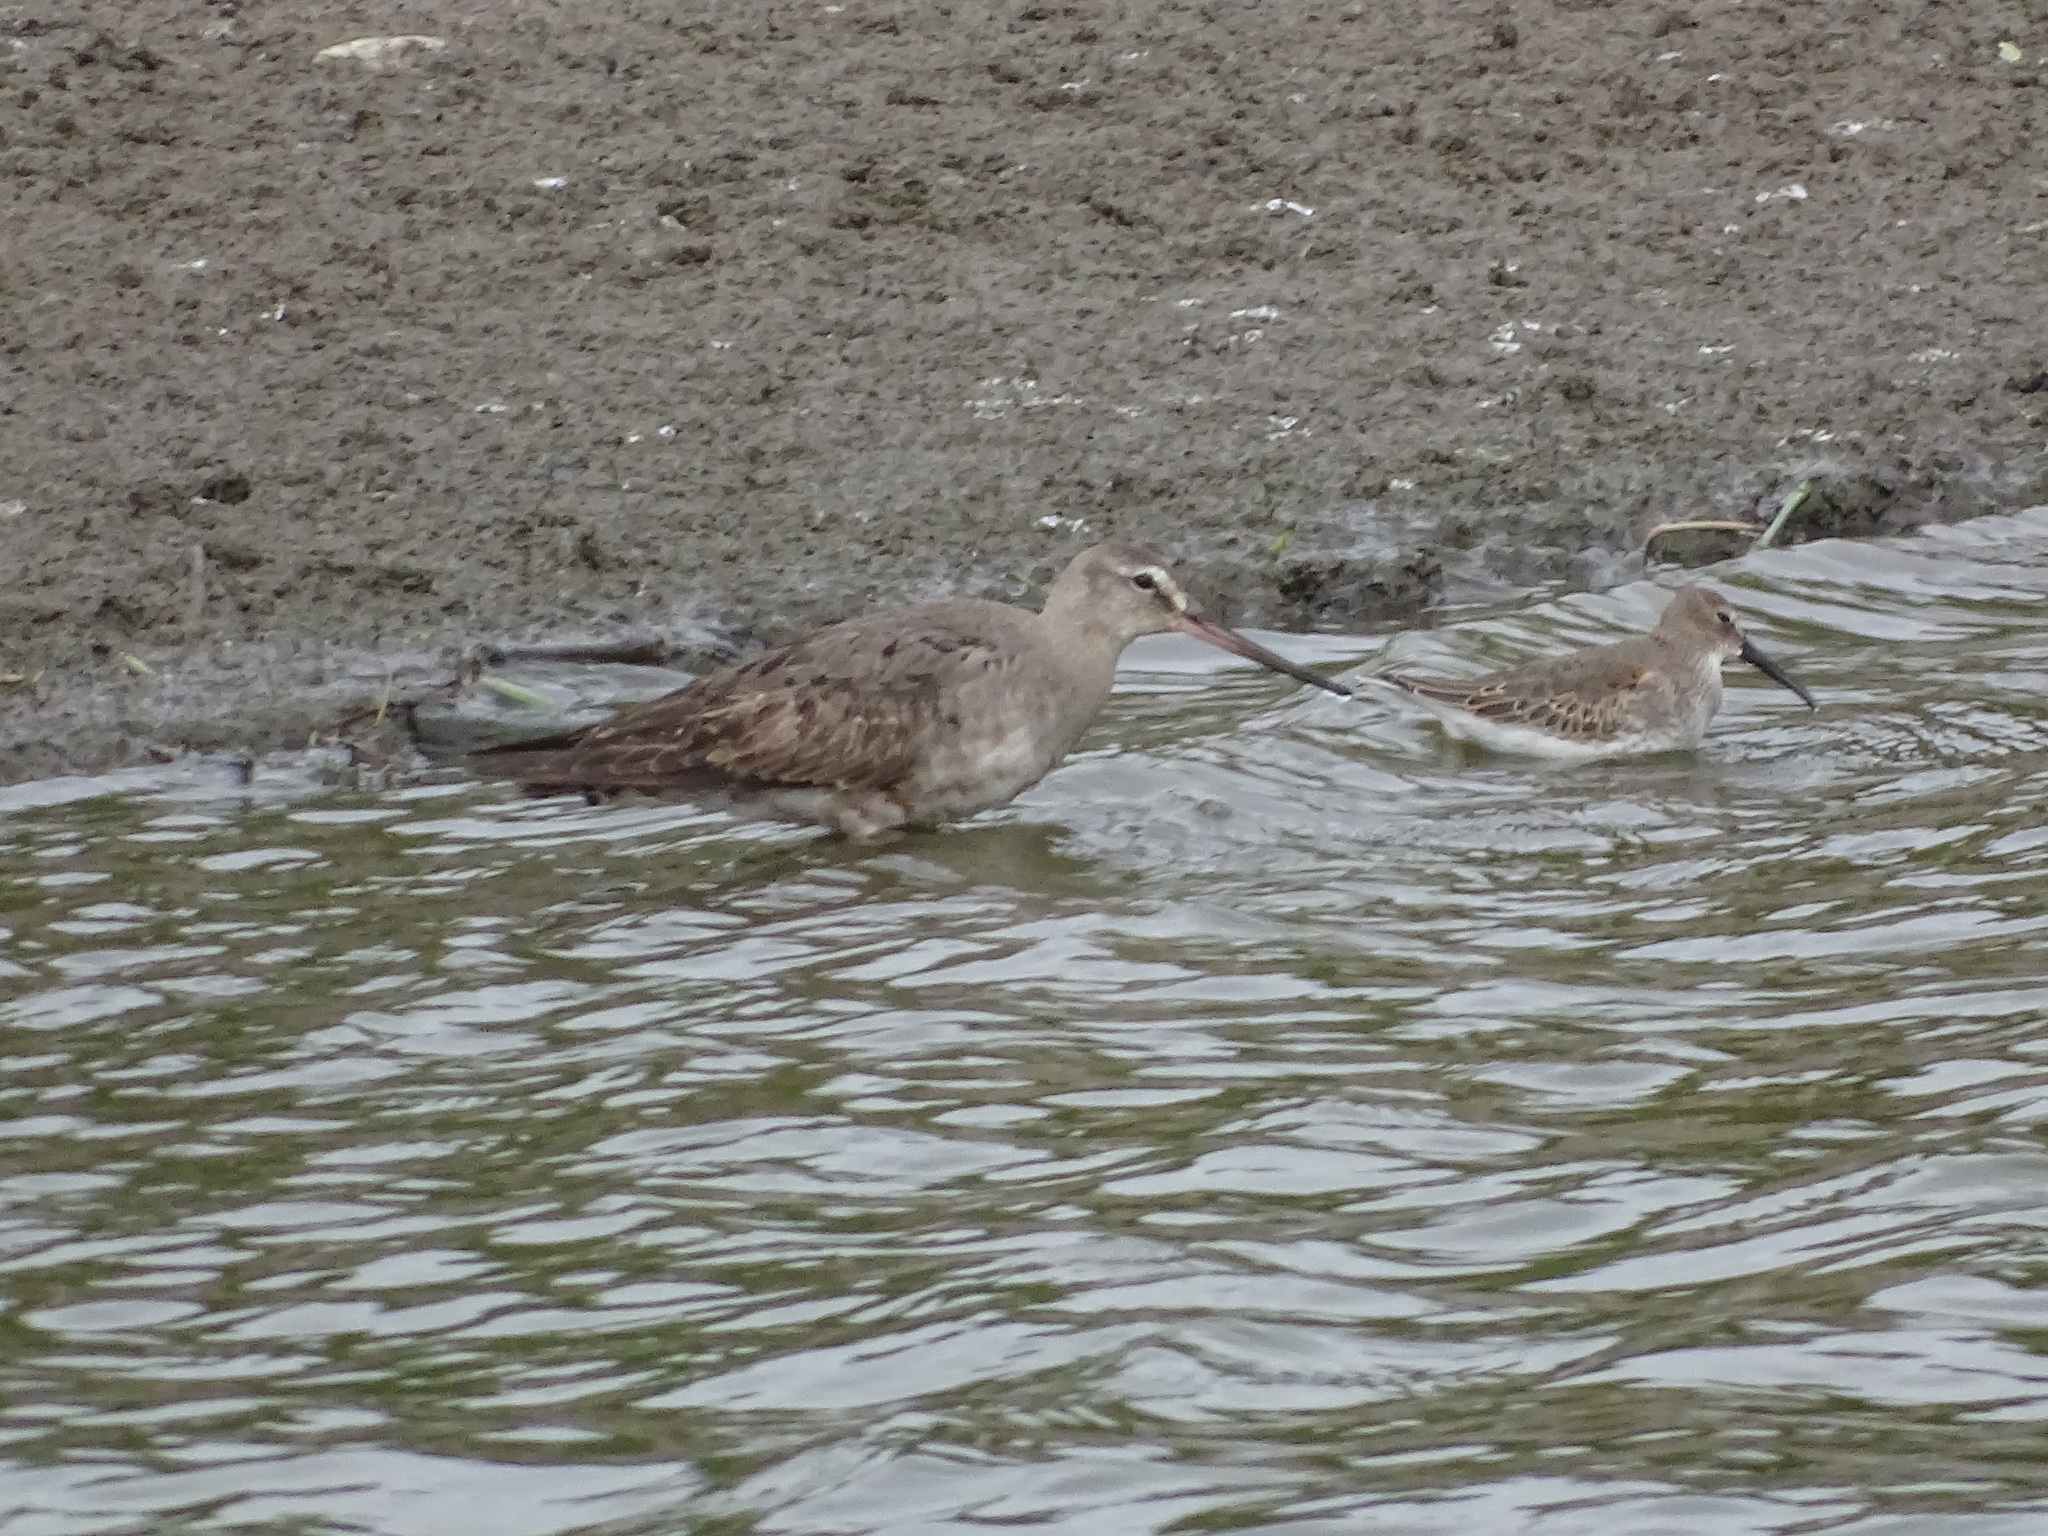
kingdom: Animalia
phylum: Chordata
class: Aves
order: Charadriiformes
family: Scolopacidae
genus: Limosa
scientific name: Limosa haemastica
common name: Hudsonian godwit
